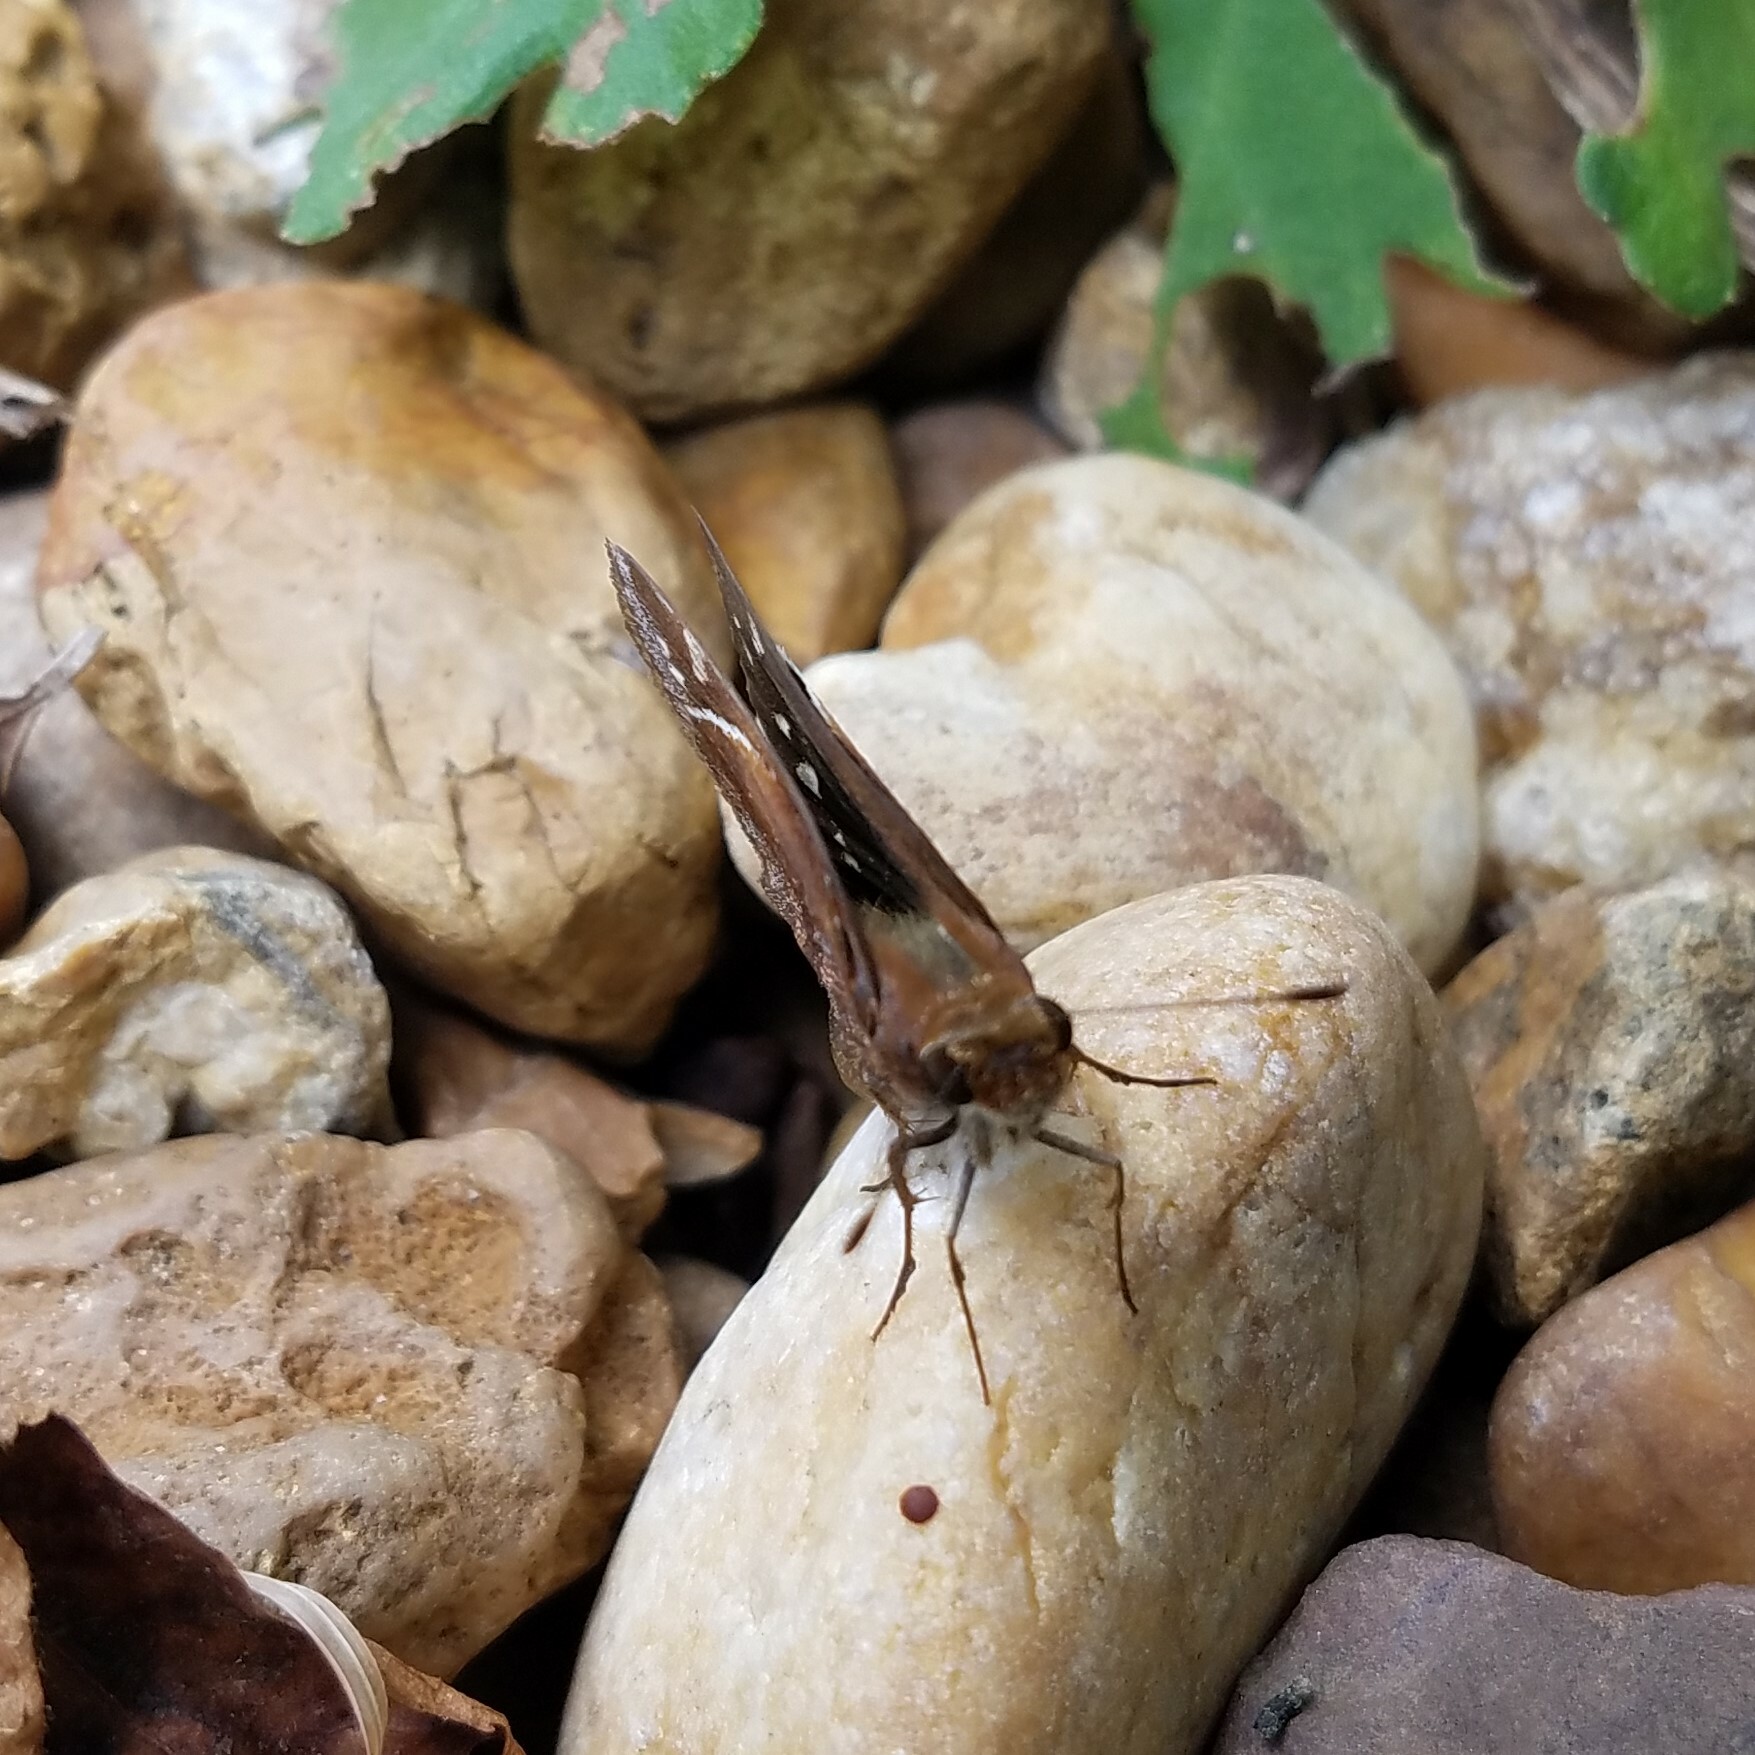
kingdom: Animalia
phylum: Arthropoda
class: Insecta
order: Lepidoptera
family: Hesperiidae
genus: Lon
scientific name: Lon zabulon
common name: Zabulon skipper
